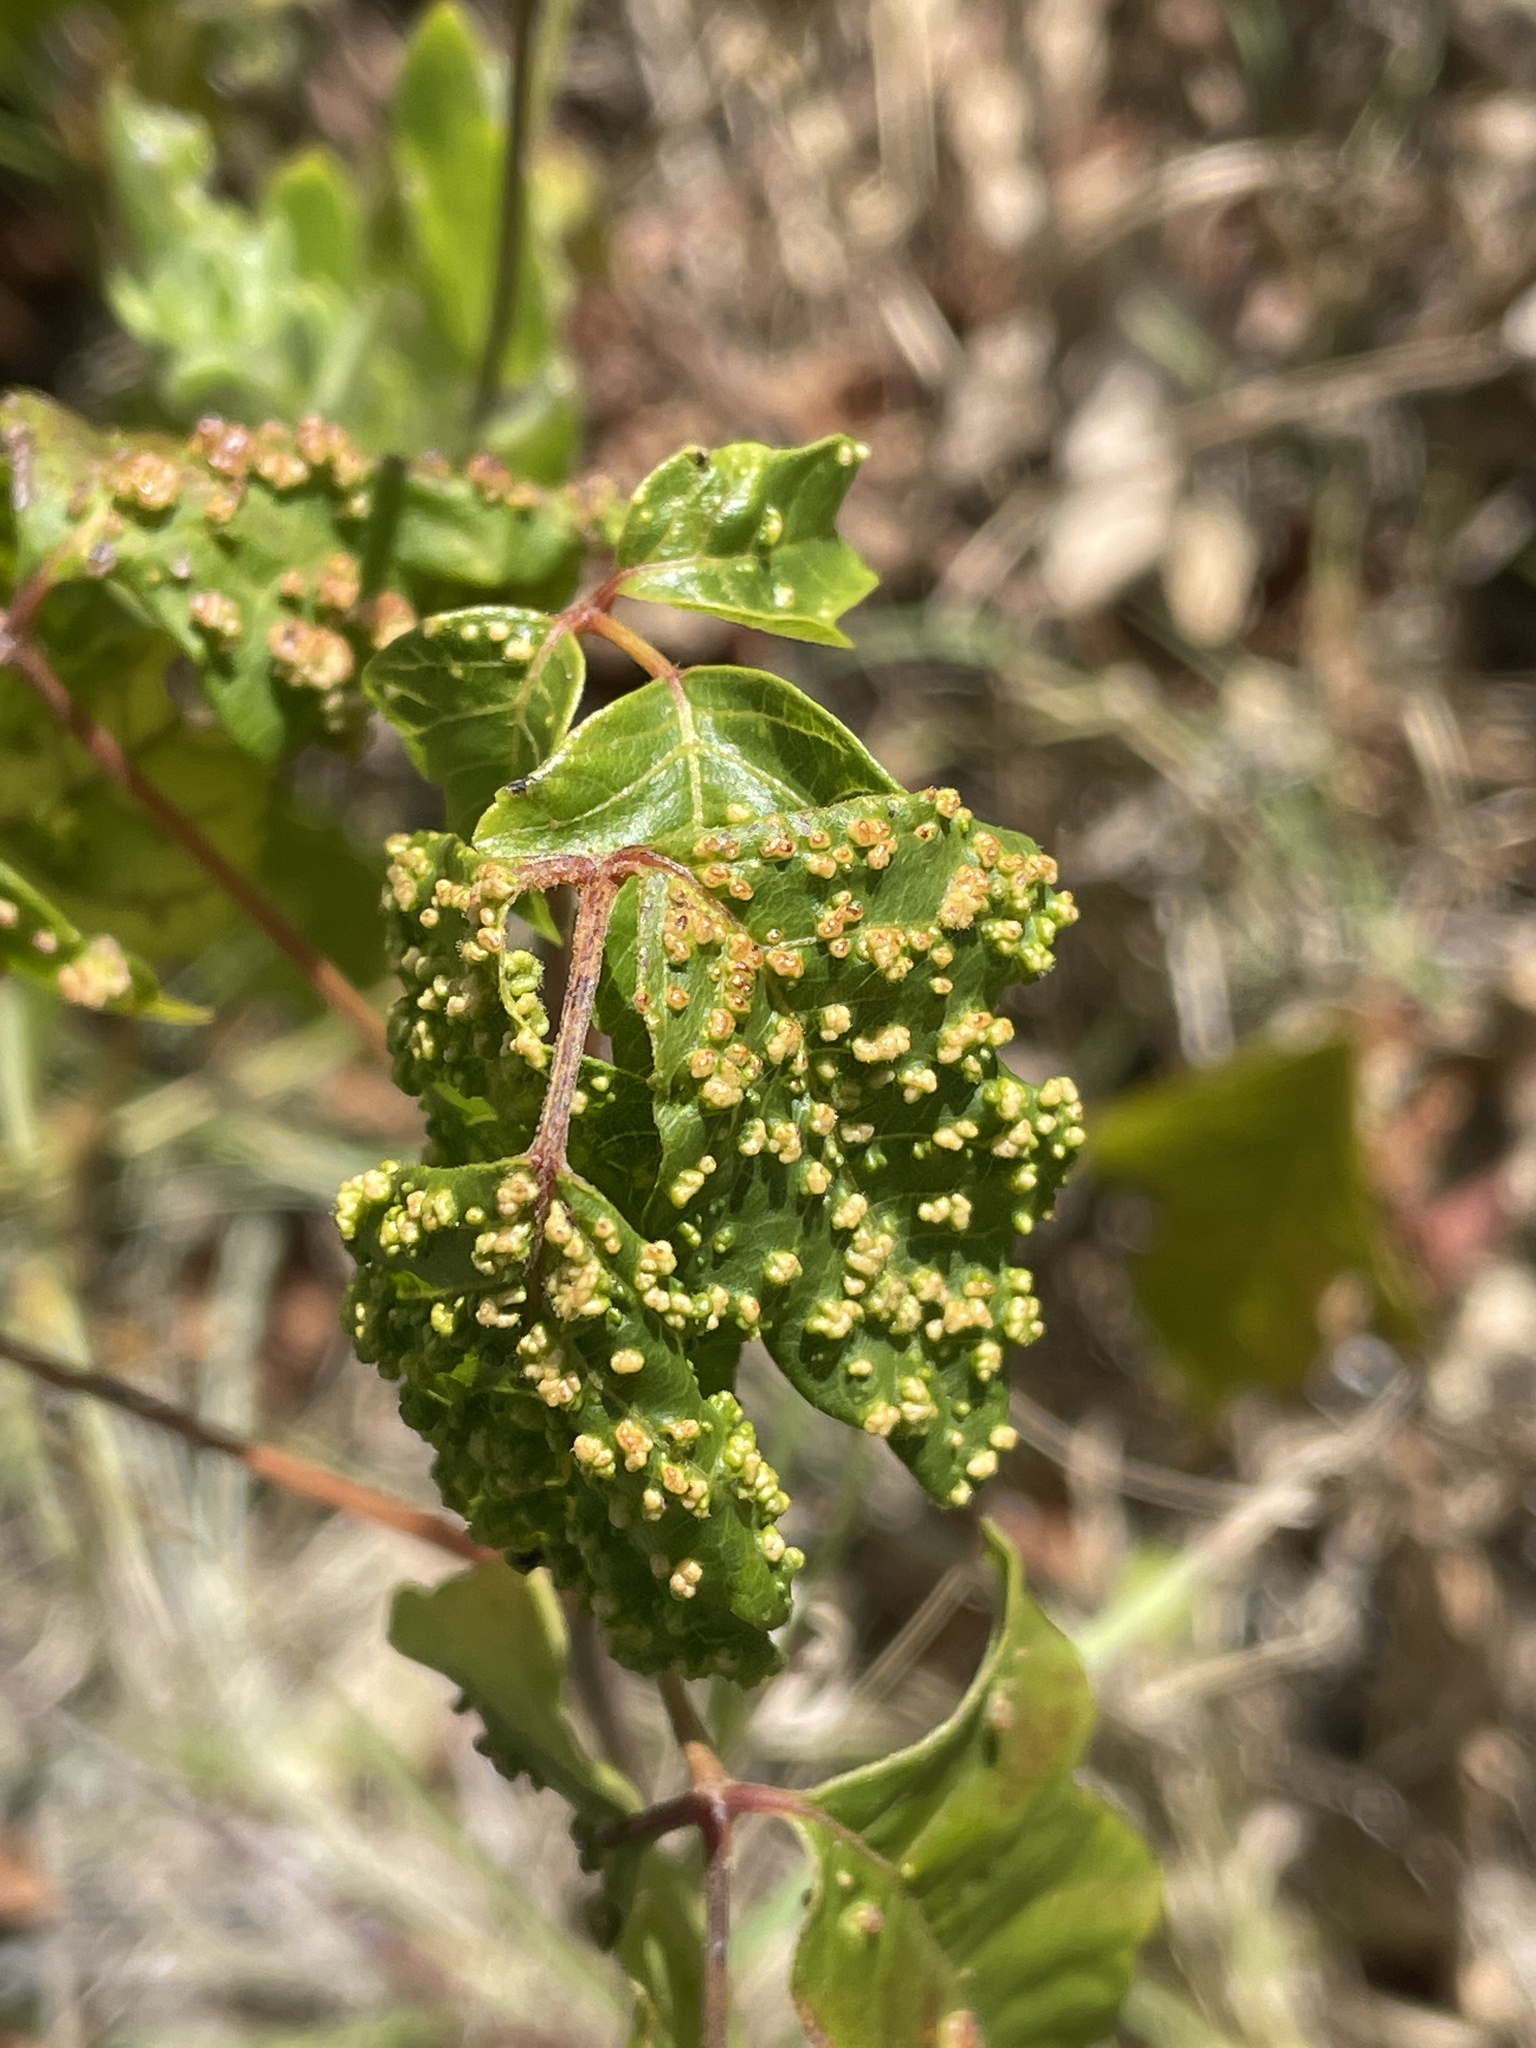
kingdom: Animalia
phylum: Arthropoda
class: Arachnida
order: Trombidiformes
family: Eriophyidae
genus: Aculops
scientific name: Aculops
